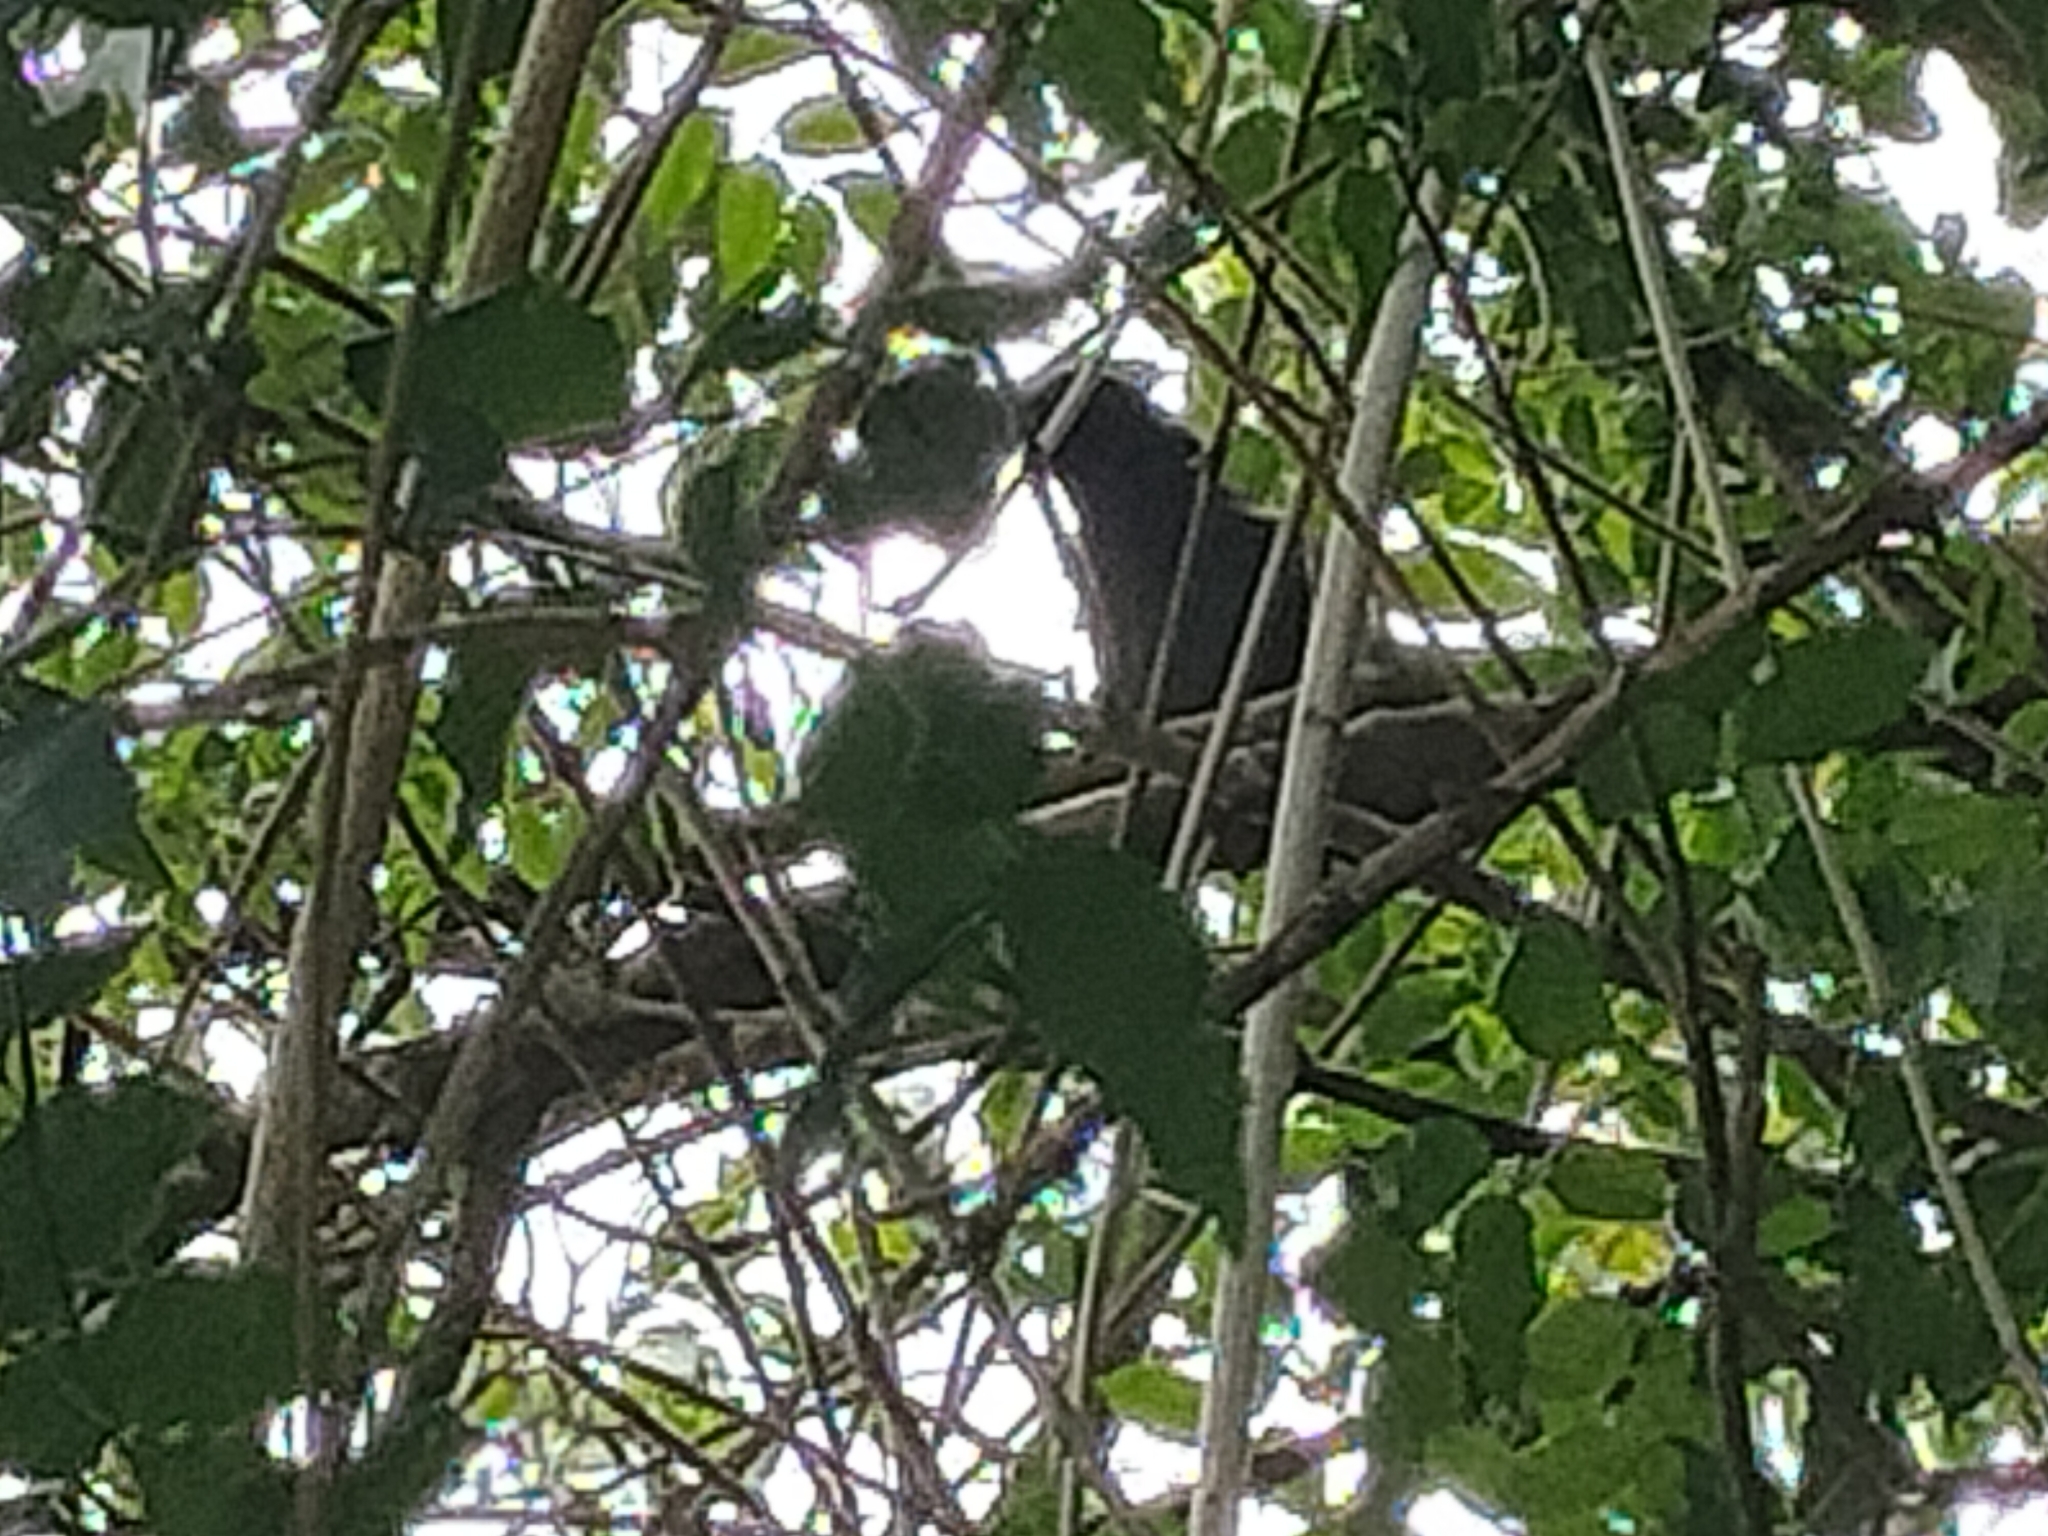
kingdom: Animalia
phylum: Chordata
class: Aves
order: Passeriformes
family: Cracticidae
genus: Strepera
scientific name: Strepera graculina
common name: Pied currawong
